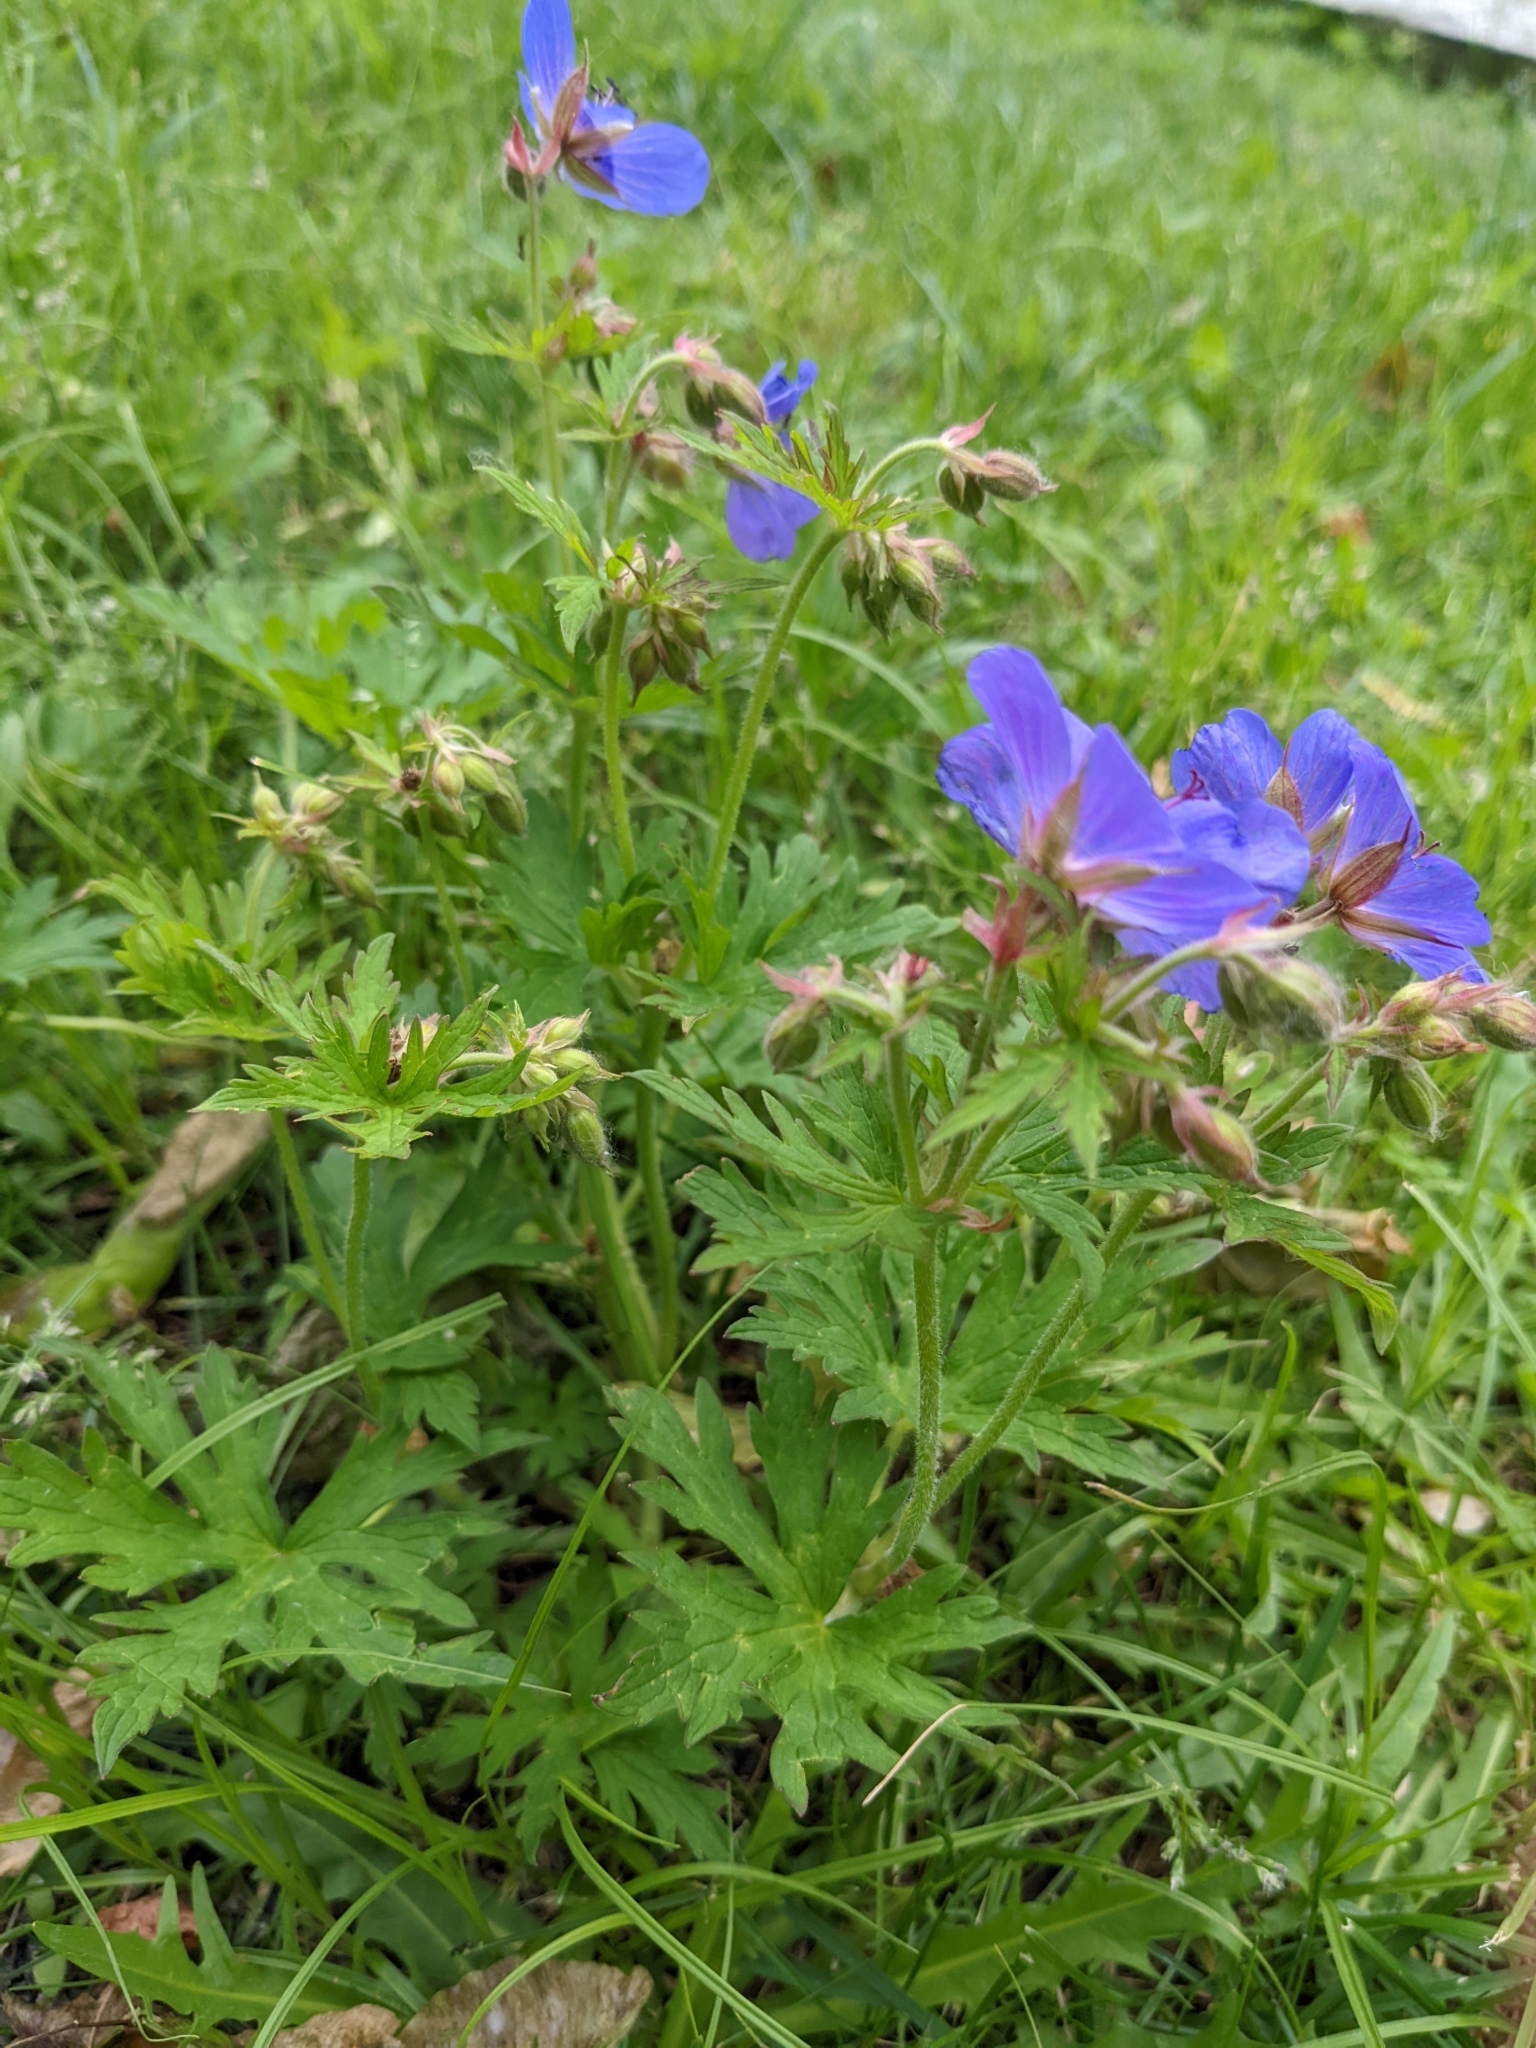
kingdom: Plantae
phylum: Tracheophyta
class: Magnoliopsida
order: Geraniales
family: Geraniaceae
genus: Geranium
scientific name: Geranium pratense
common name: Meadow crane's-bill
